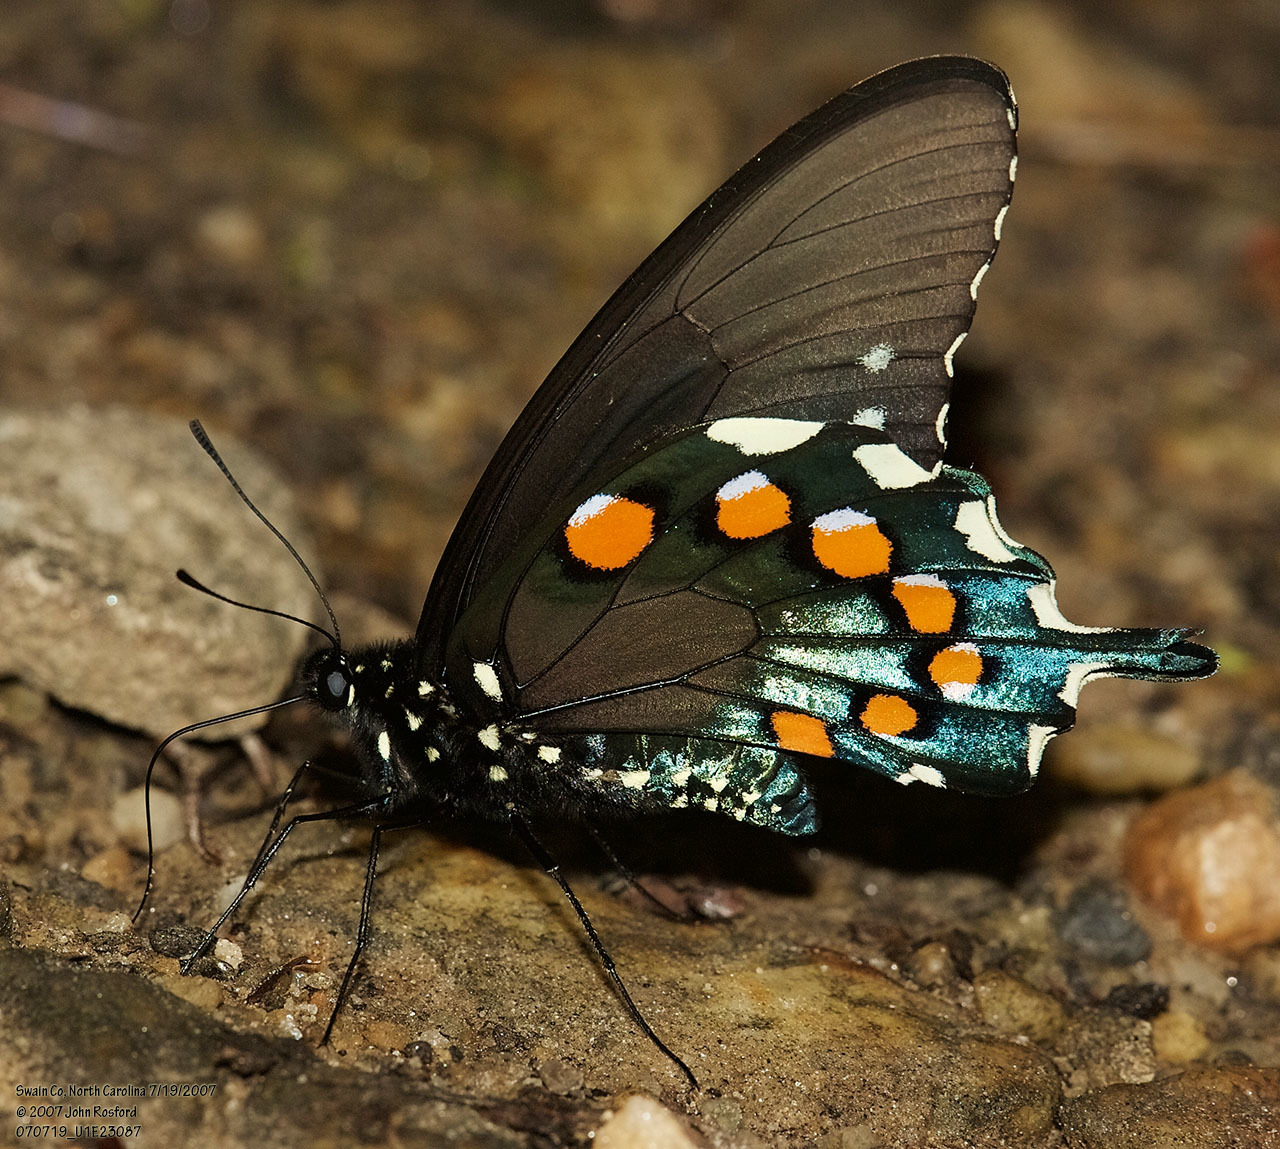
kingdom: Animalia
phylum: Arthropoda
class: Insecta
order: Lepidoptera
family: Papilionidae
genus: Battus
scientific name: Battus philenor
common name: Pipevine swallowtail
